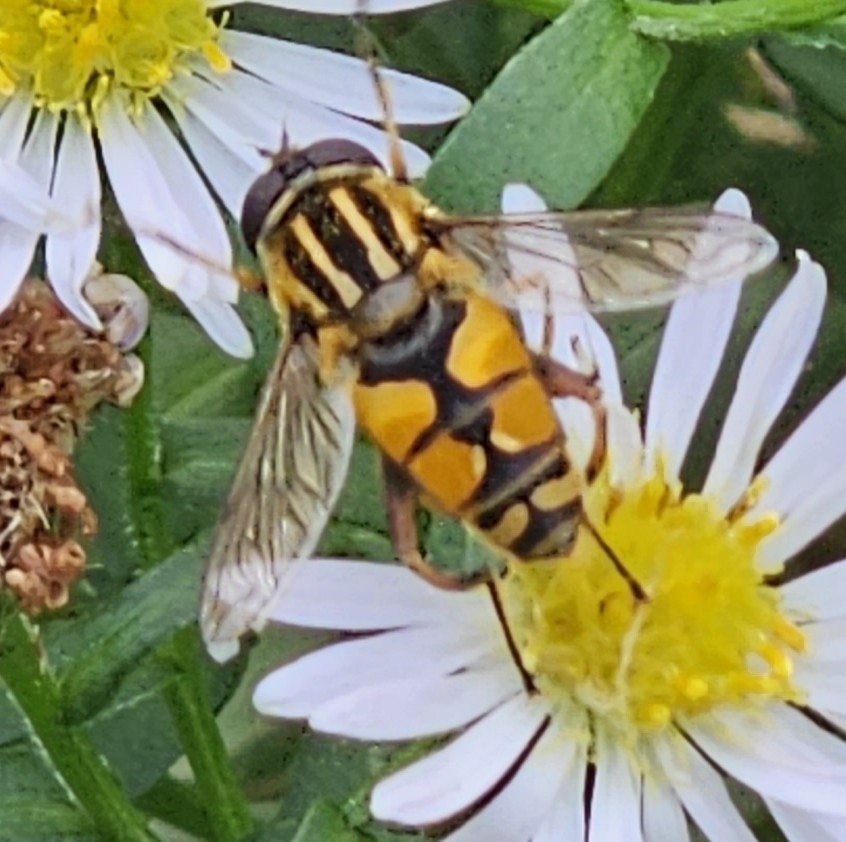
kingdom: Animalia
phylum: Arthropoda
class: Insecta
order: Diptera
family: Syrphidae
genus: Helophilus
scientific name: Helophilus pendulus
